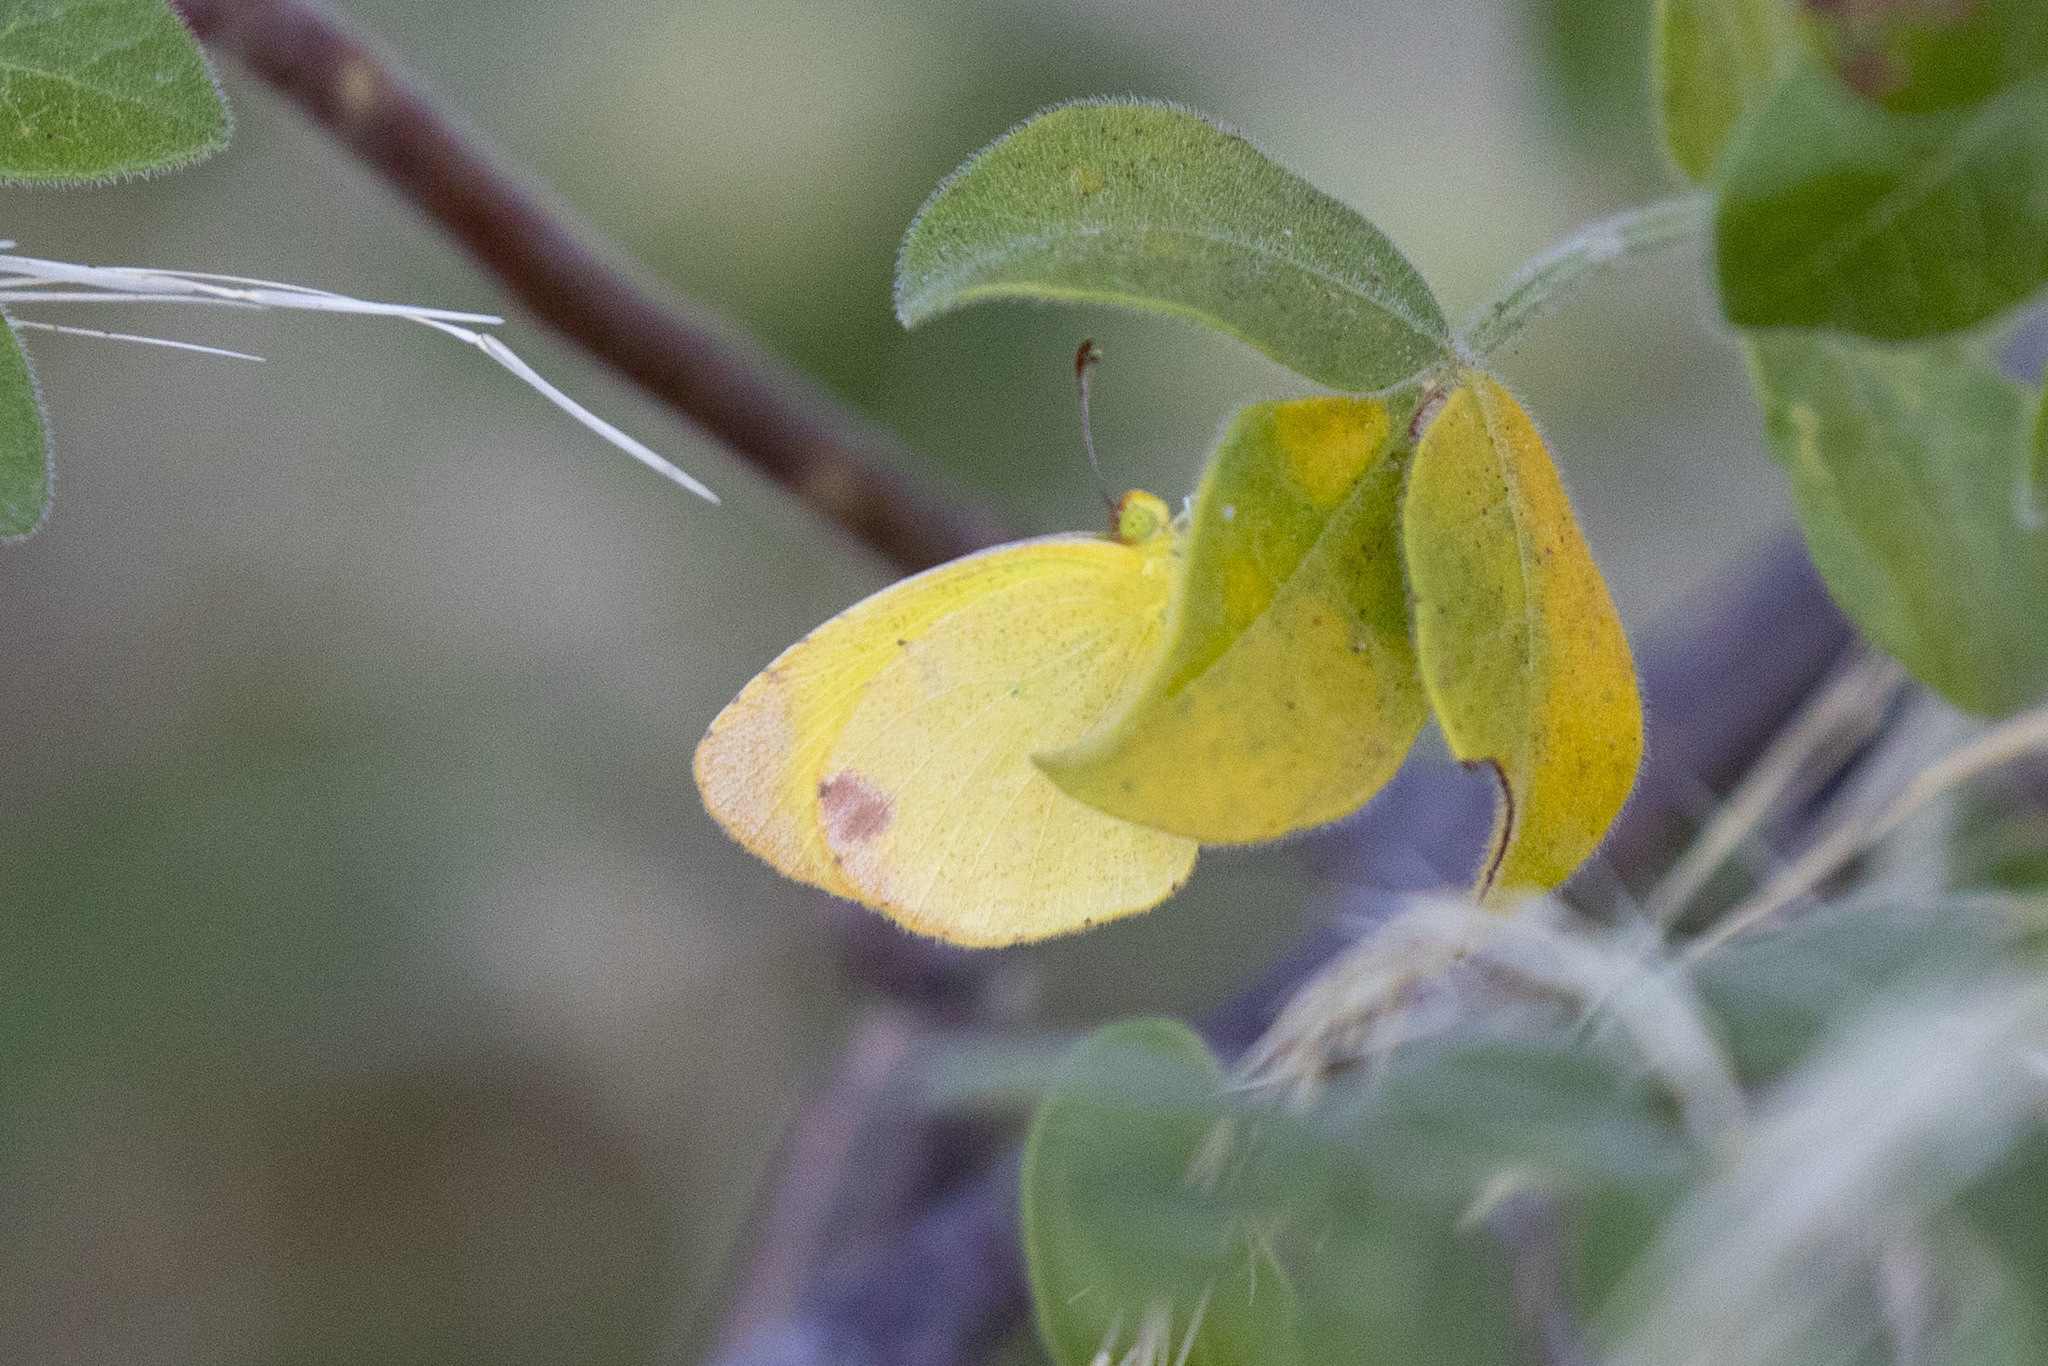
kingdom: Animalia
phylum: Arthropoda
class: Insecta
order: Lepidoptera
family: Pieridae
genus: Pyrisitia
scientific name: Pyrisitia nise
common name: Mimosa yellow
